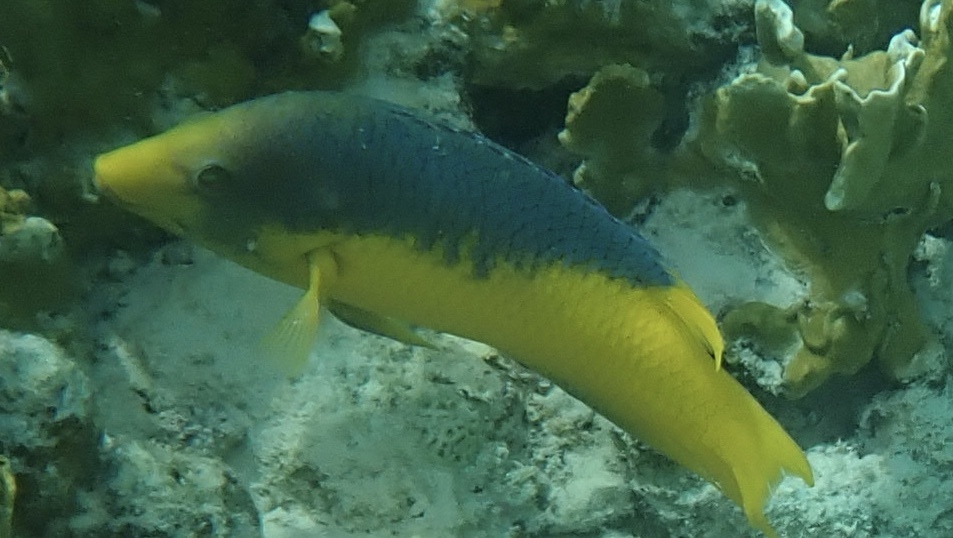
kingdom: Animalia
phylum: Chordata
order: Perciformes
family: Labridae
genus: Bodianus
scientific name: Bodianus rufus
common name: Spanish hogfish
